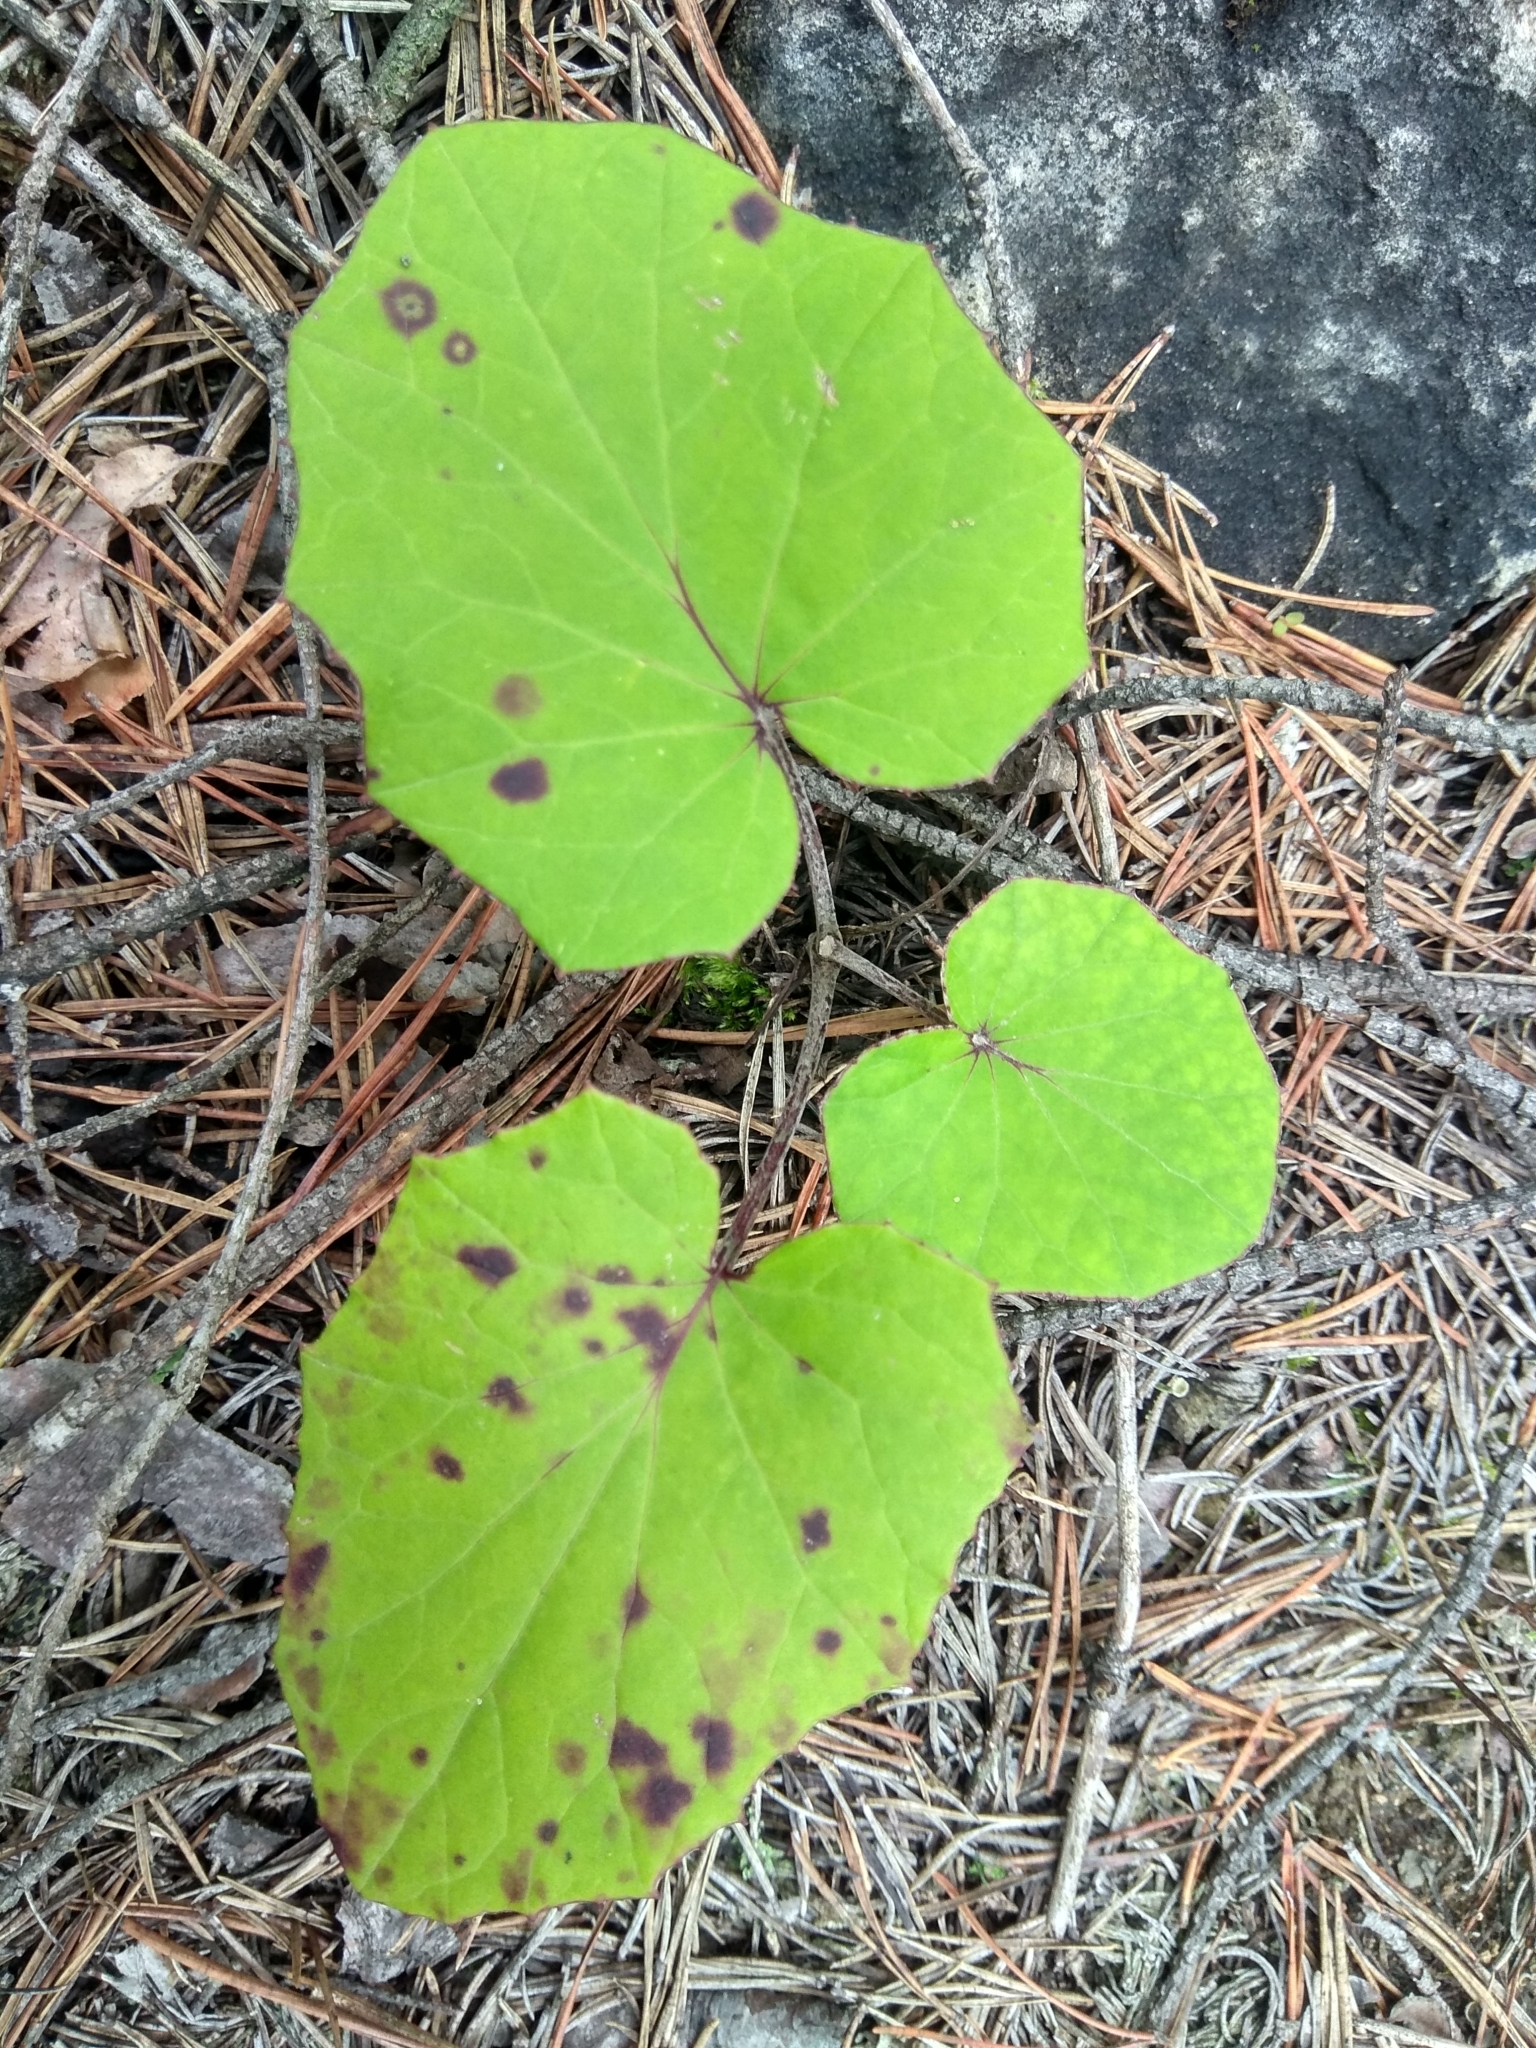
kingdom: Plantae
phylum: Tracheophyta
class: Magnoliopsida
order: Asterales
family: Asteraceae
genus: Tussilago
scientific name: Tussilago farfara
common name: Coltsfoot
